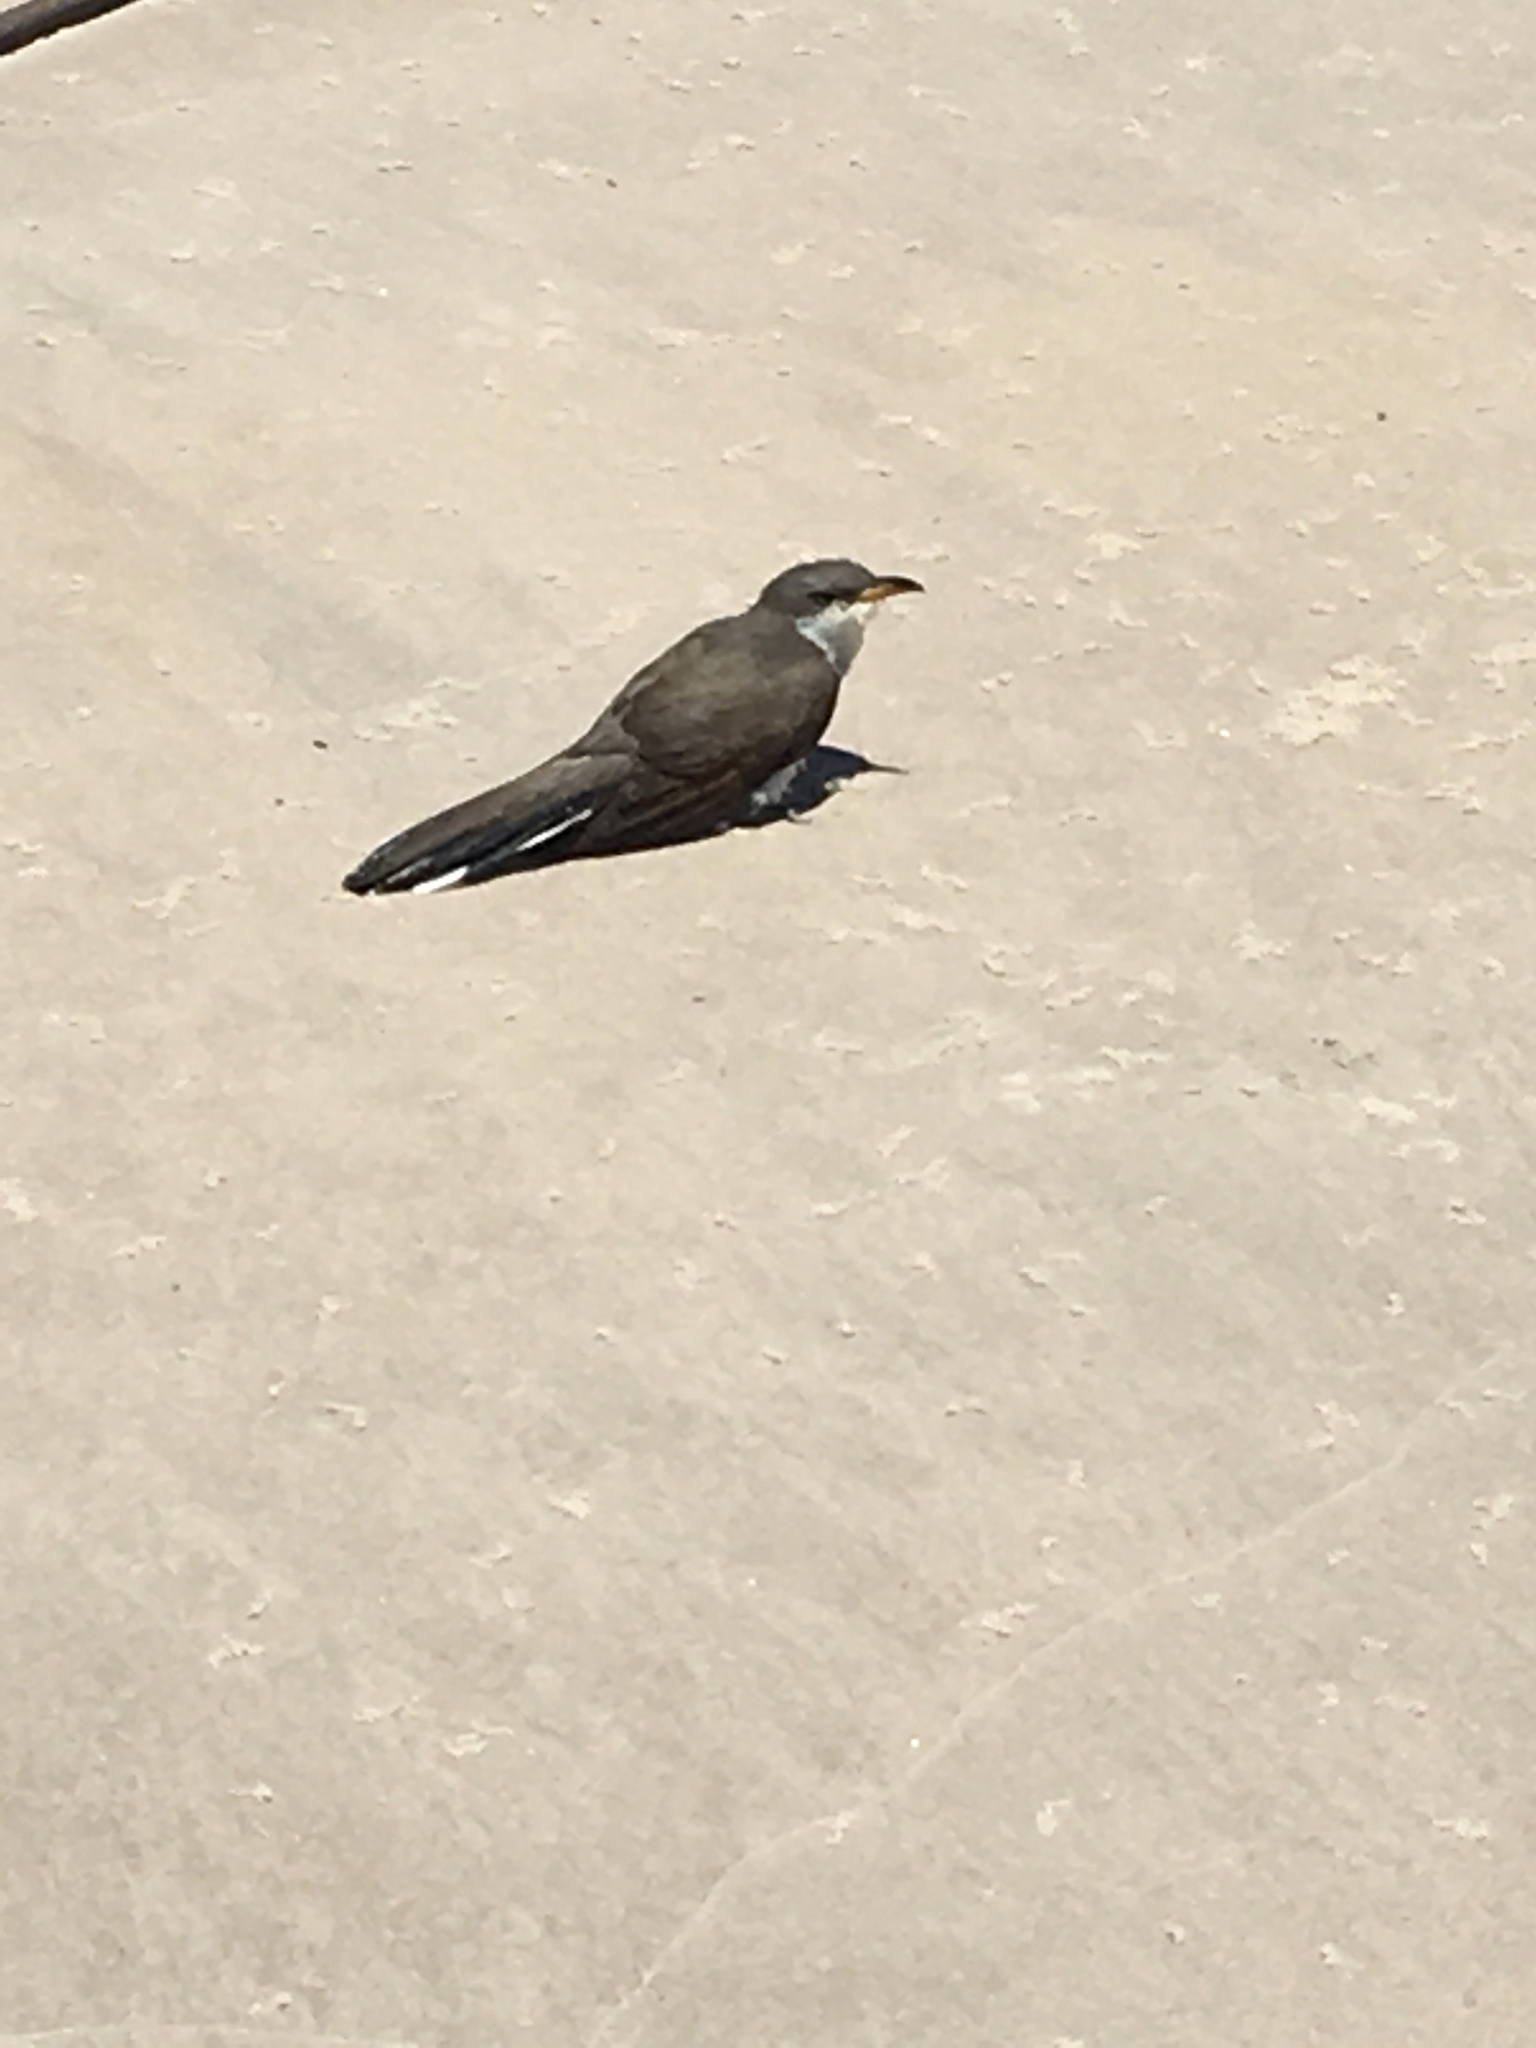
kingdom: Animalia
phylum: Chordata
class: Aves
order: Cuculiformes
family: Cuculidae
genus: Coccyzus
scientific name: Coccyzus americanus
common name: Yellow-billed cuckoo
